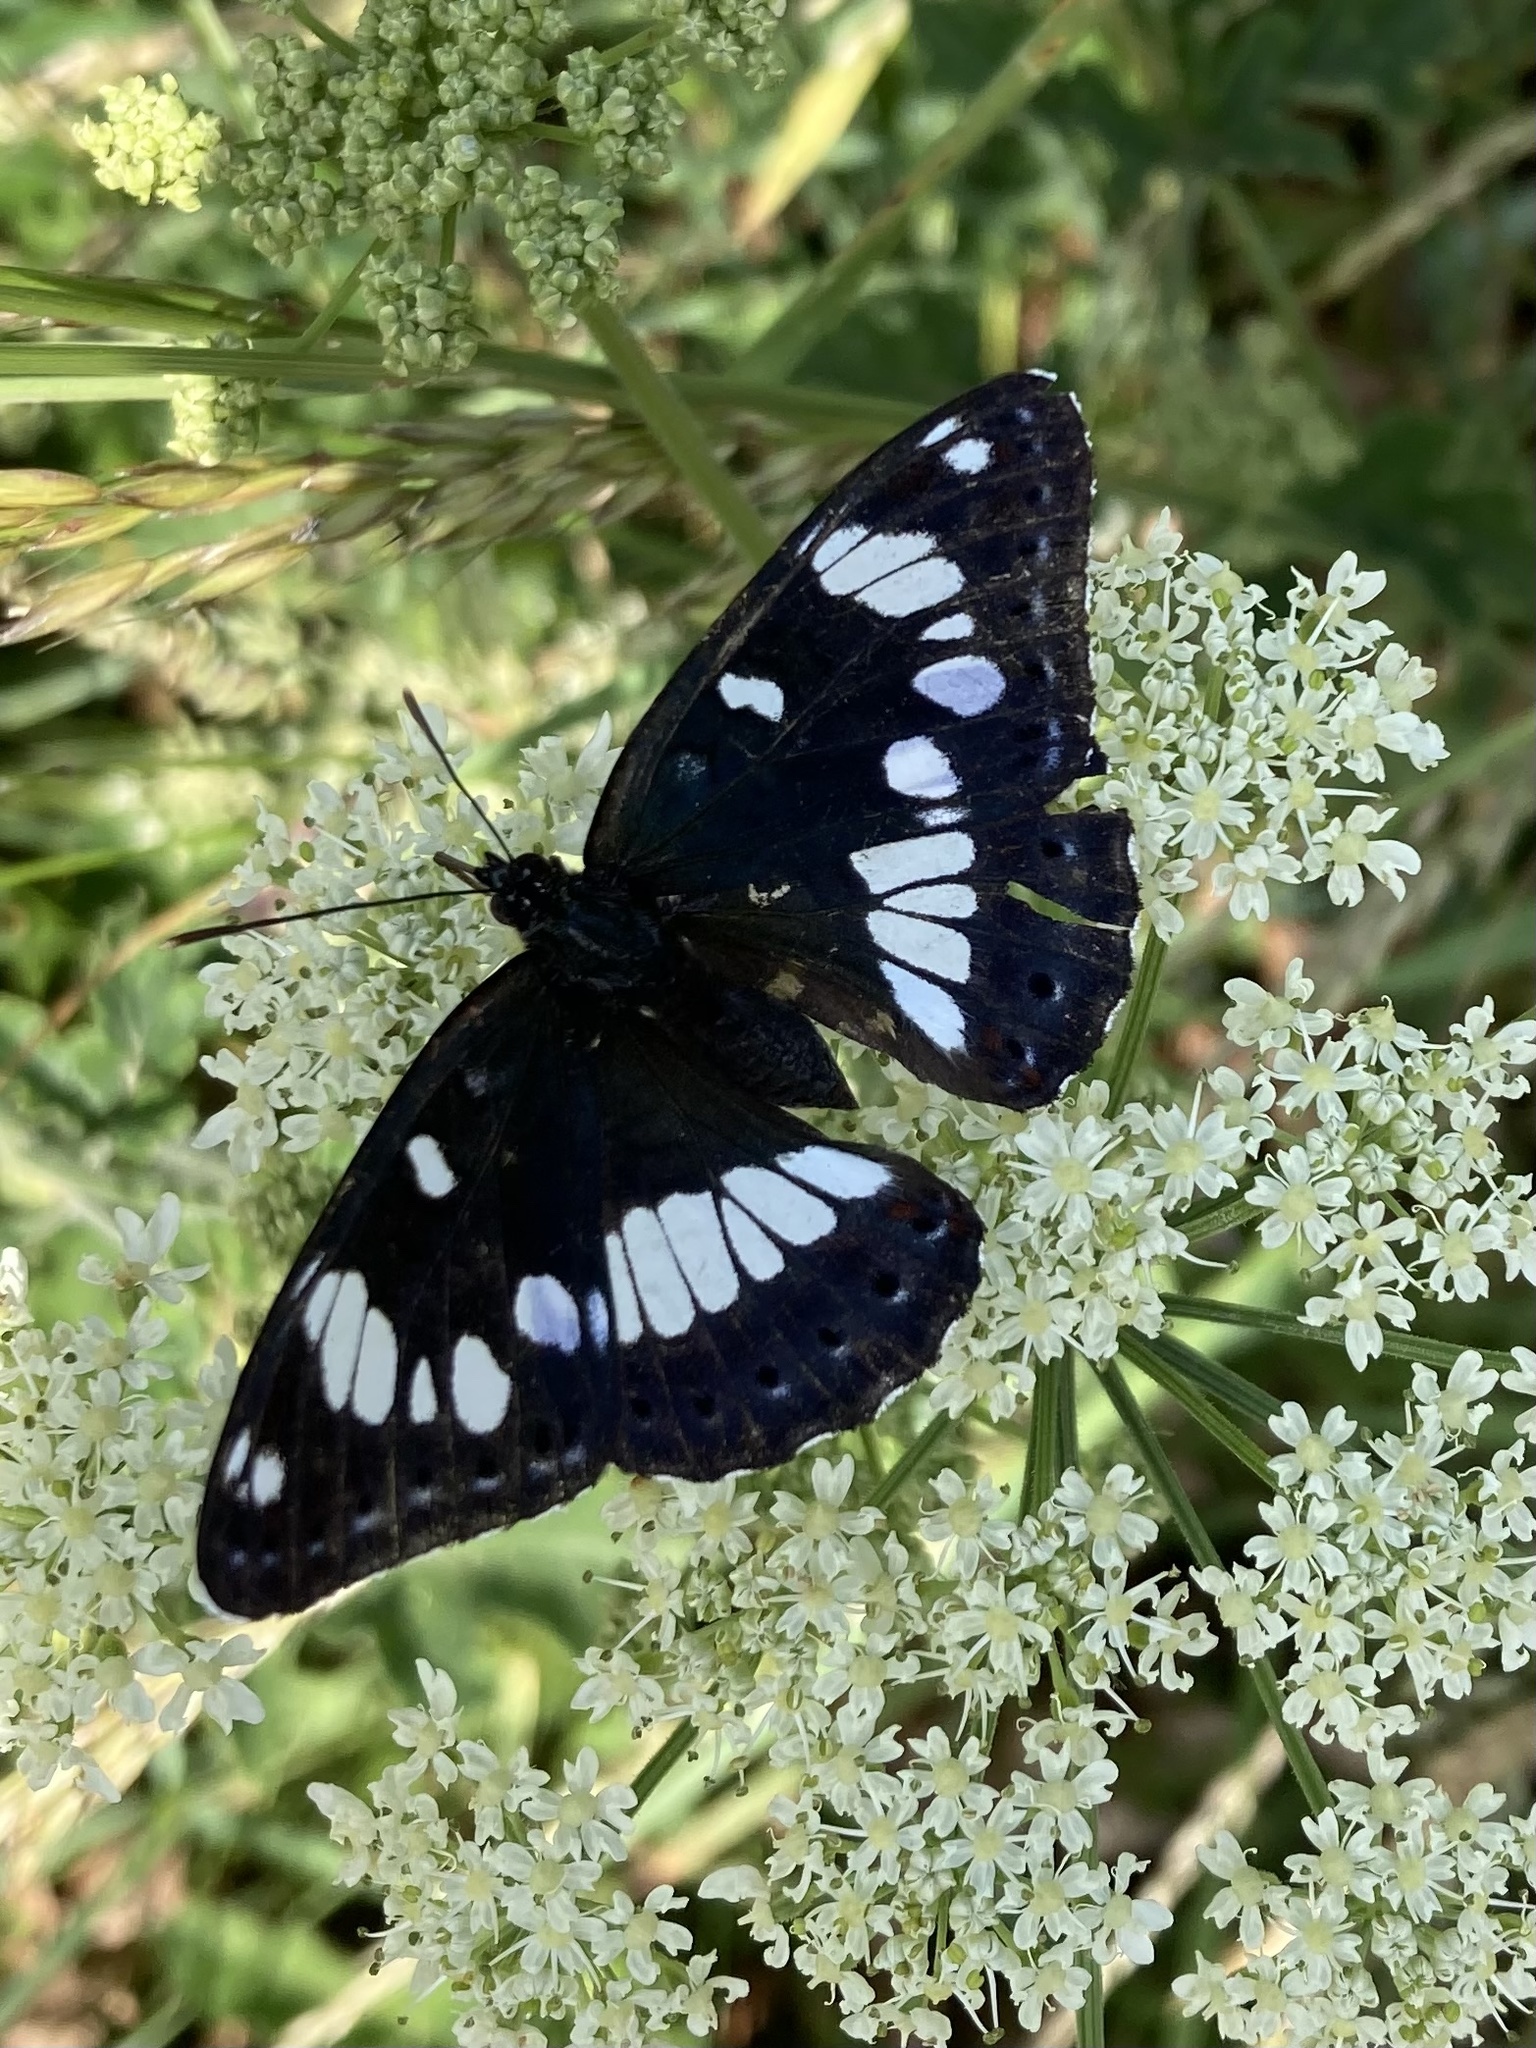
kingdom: Animalia
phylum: Arthropoda
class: Insecta
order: Lepidoptera
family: Nymphalidae
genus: Limenitis
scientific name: Limenitis reducta
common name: Southern white admiral
